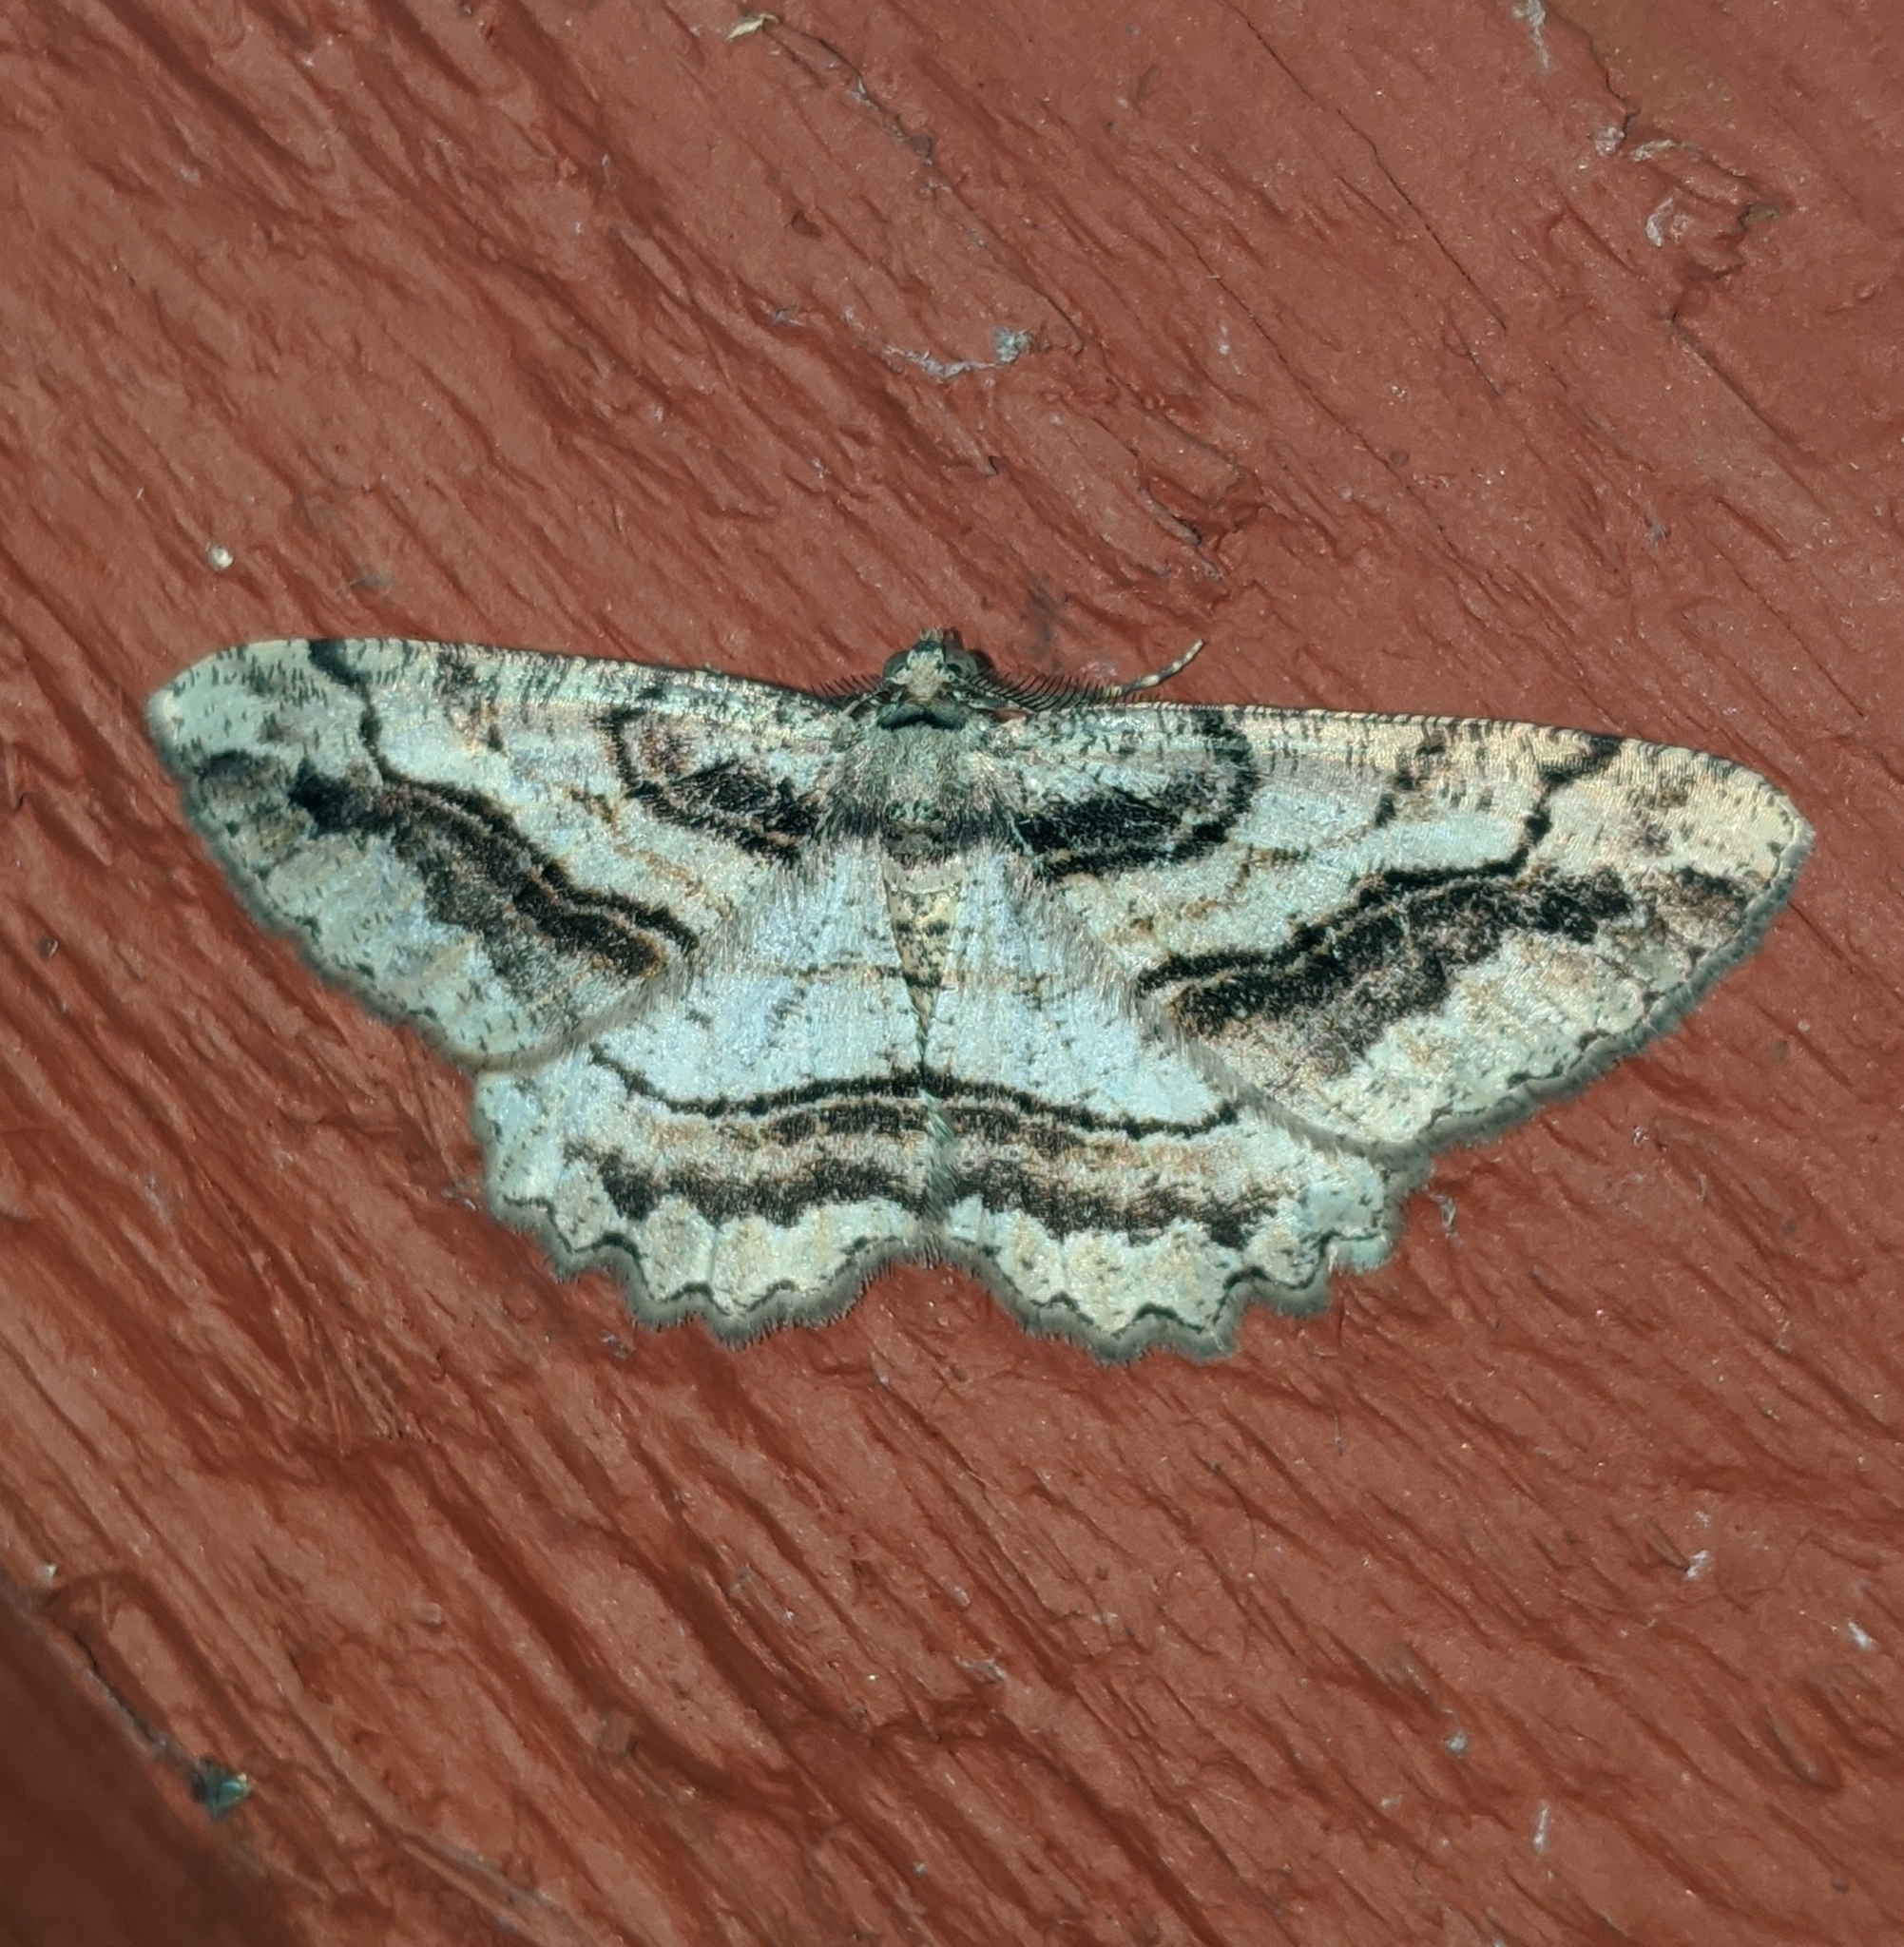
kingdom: Animalia
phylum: Arthropoda
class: Insecta
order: Lepidoptera
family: Geometridae
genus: Neoalcis
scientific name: Neoalcis californiaria
